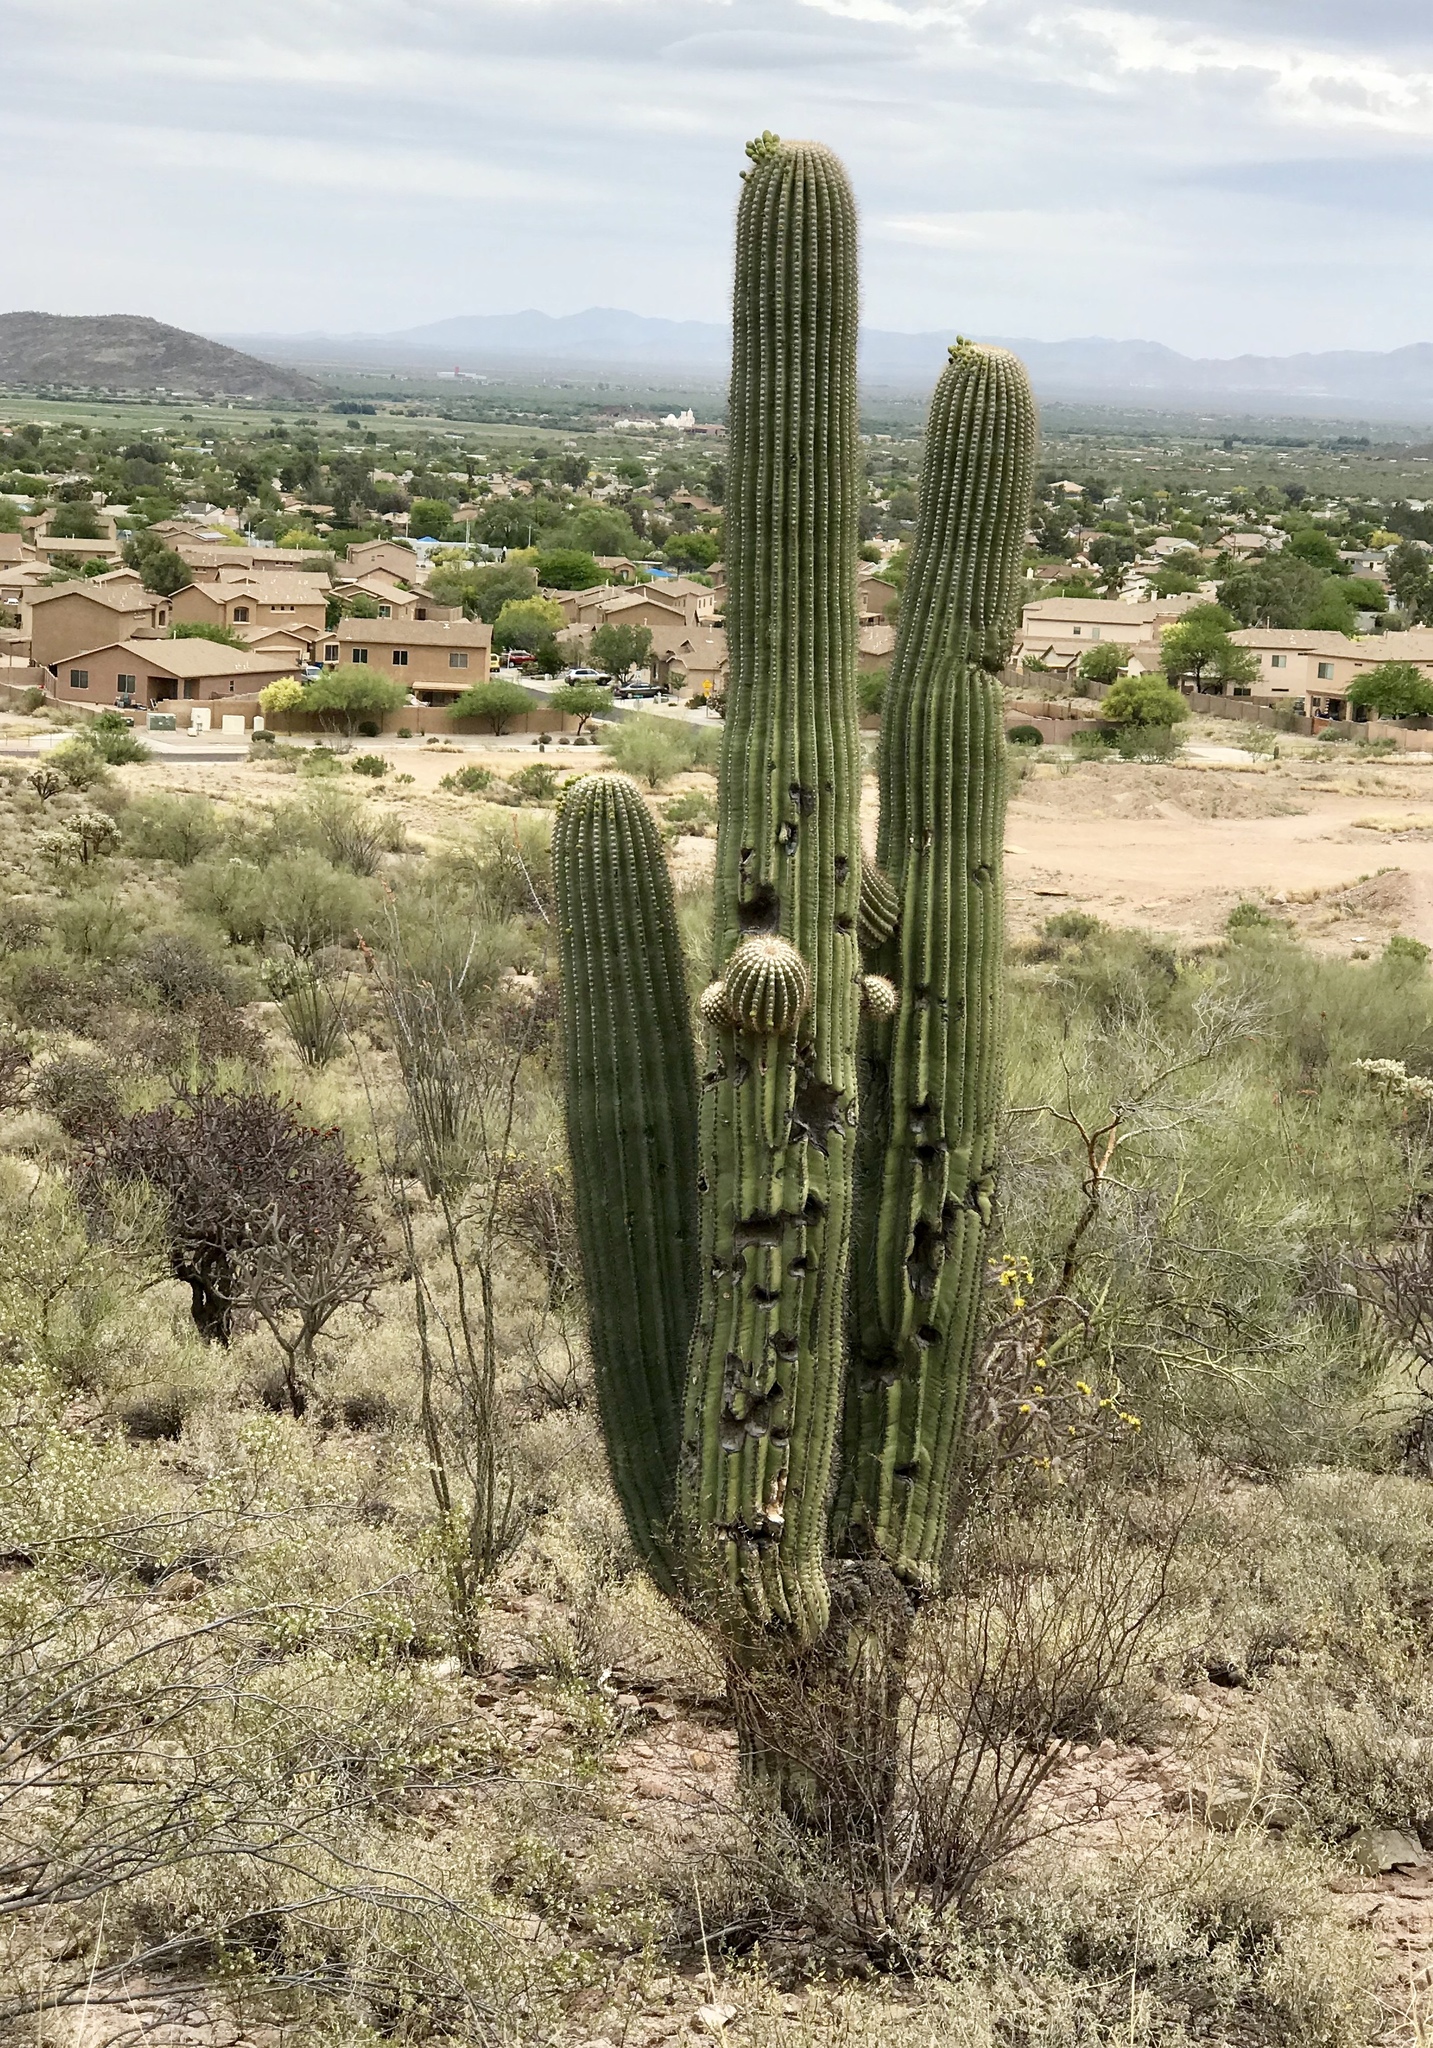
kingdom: Plantae
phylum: Tracheophyta
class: Magnoliopsida
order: Caryophyllales
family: Cactaceae
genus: Carnegiea
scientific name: Carnegiea gigantea
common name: Saguaro
